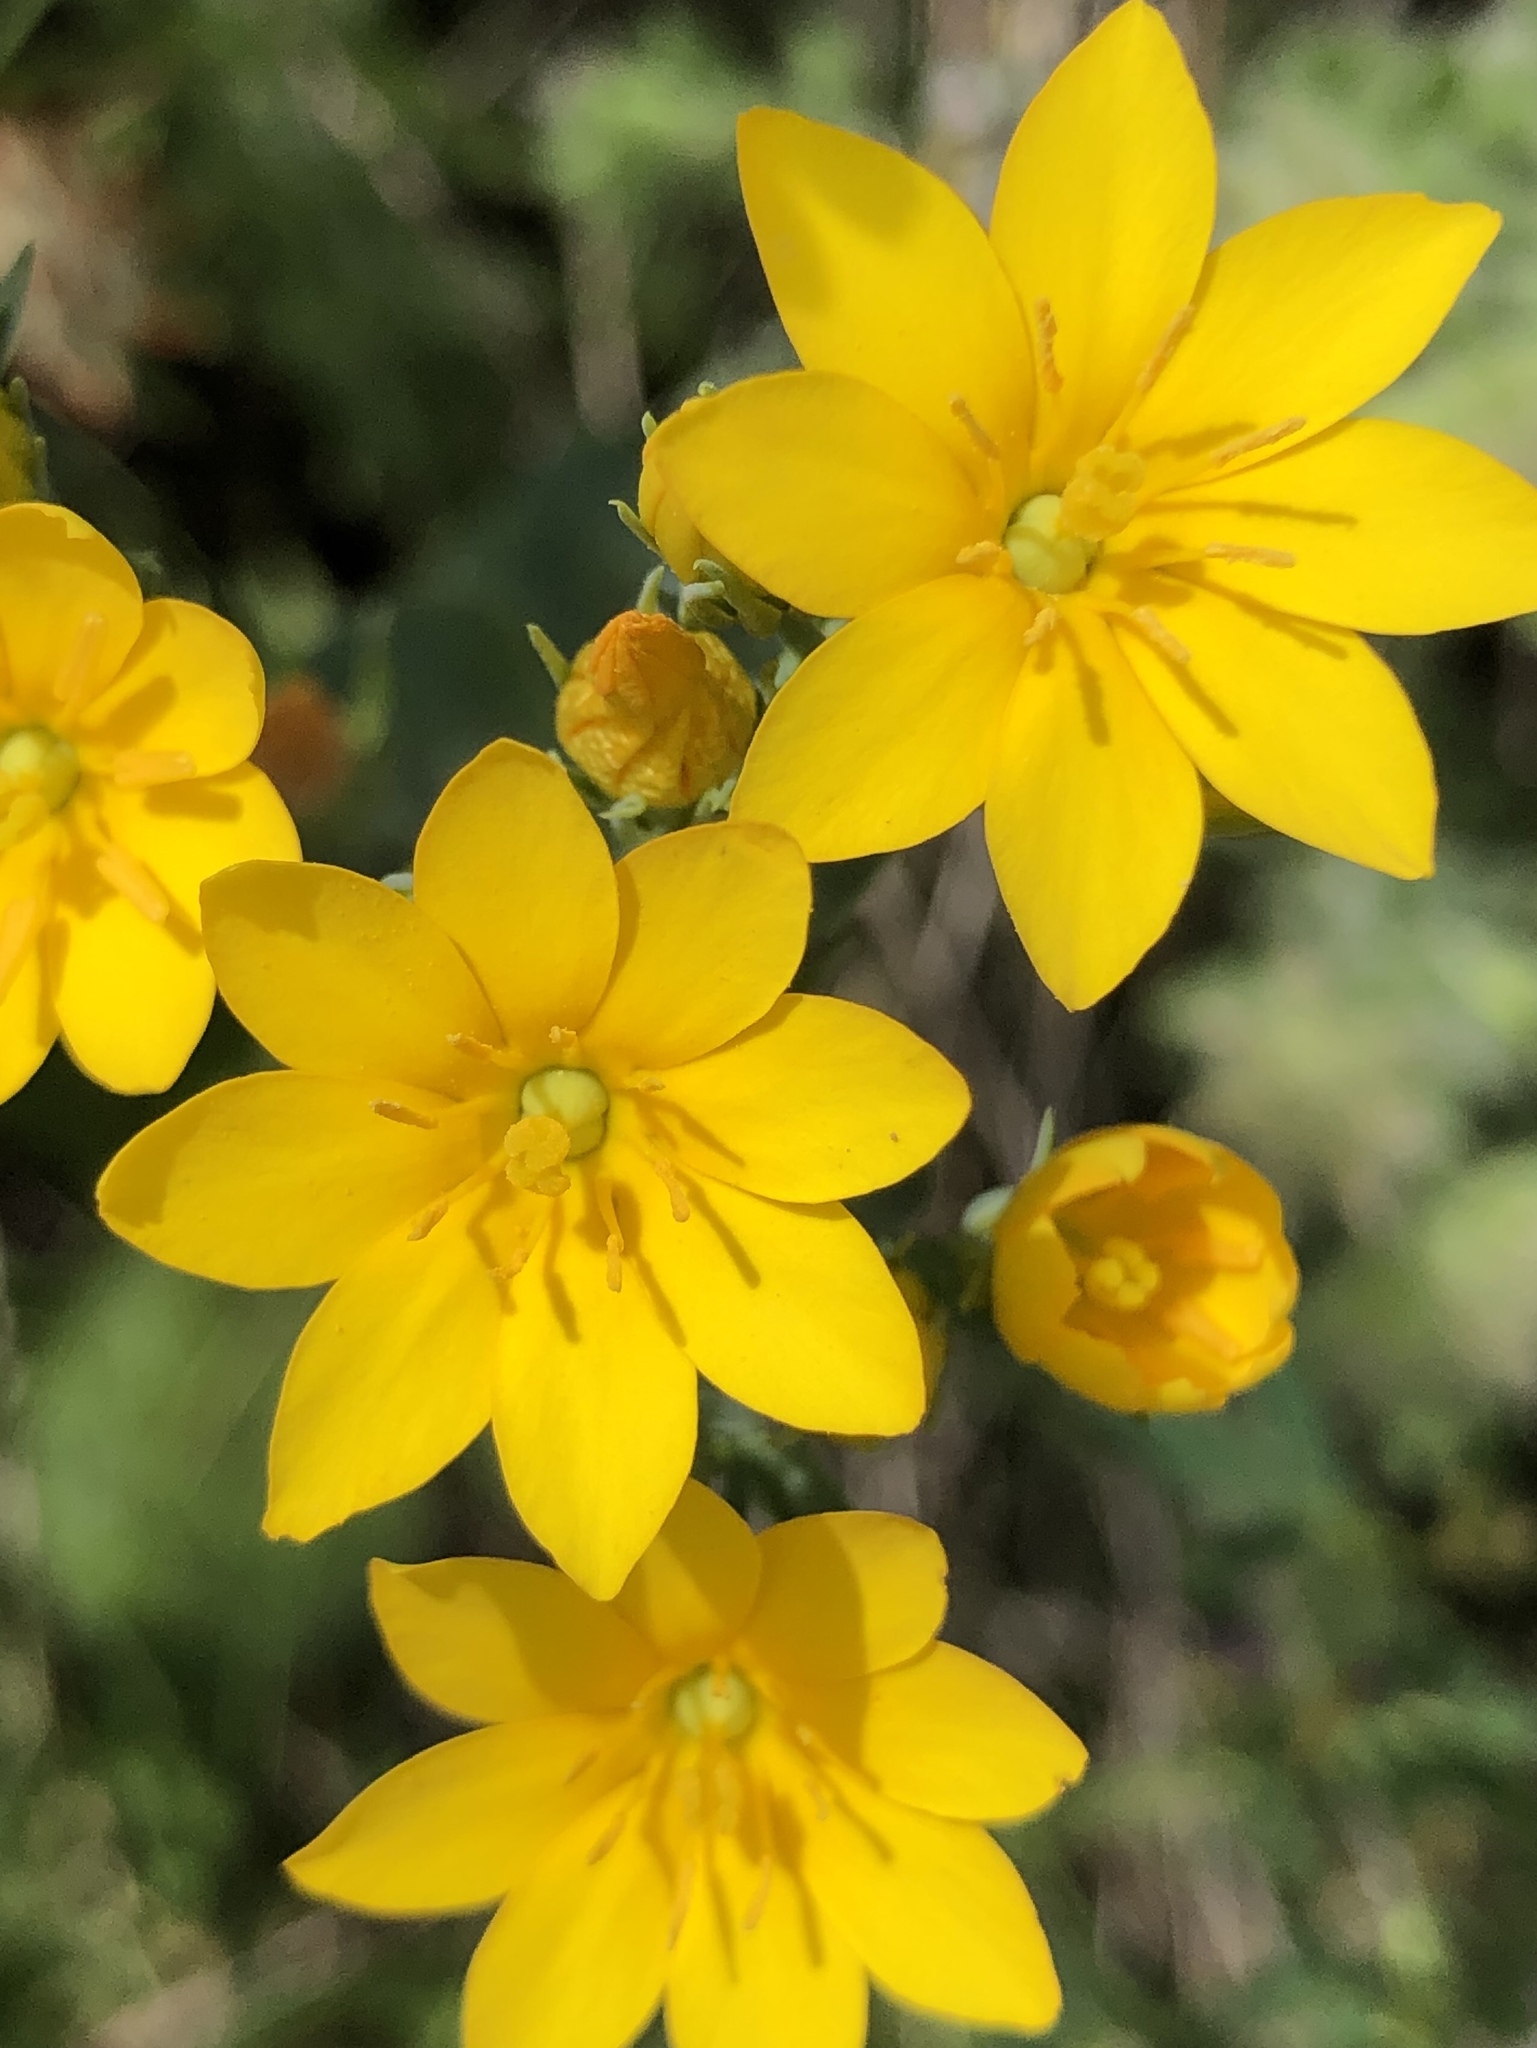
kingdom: Plantae
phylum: Tracheophyta
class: Magnoliopsida
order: Gentianales
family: Gentianaceae
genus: Blackstonia
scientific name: Blackstonia perfoliata
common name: Yellow-wort
